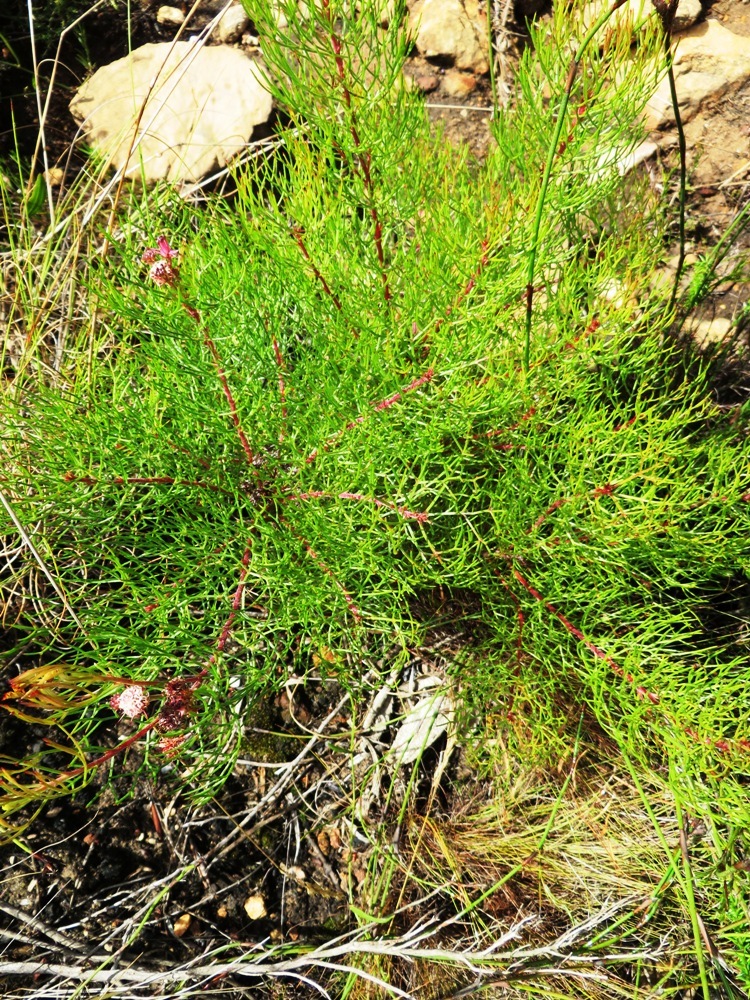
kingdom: Plantae
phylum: Tracheophyta
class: Magnoliopsida
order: Proteales
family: Proteaceae
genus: Serruria
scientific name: Serruria fasciflora
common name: Common pin spiderhead
